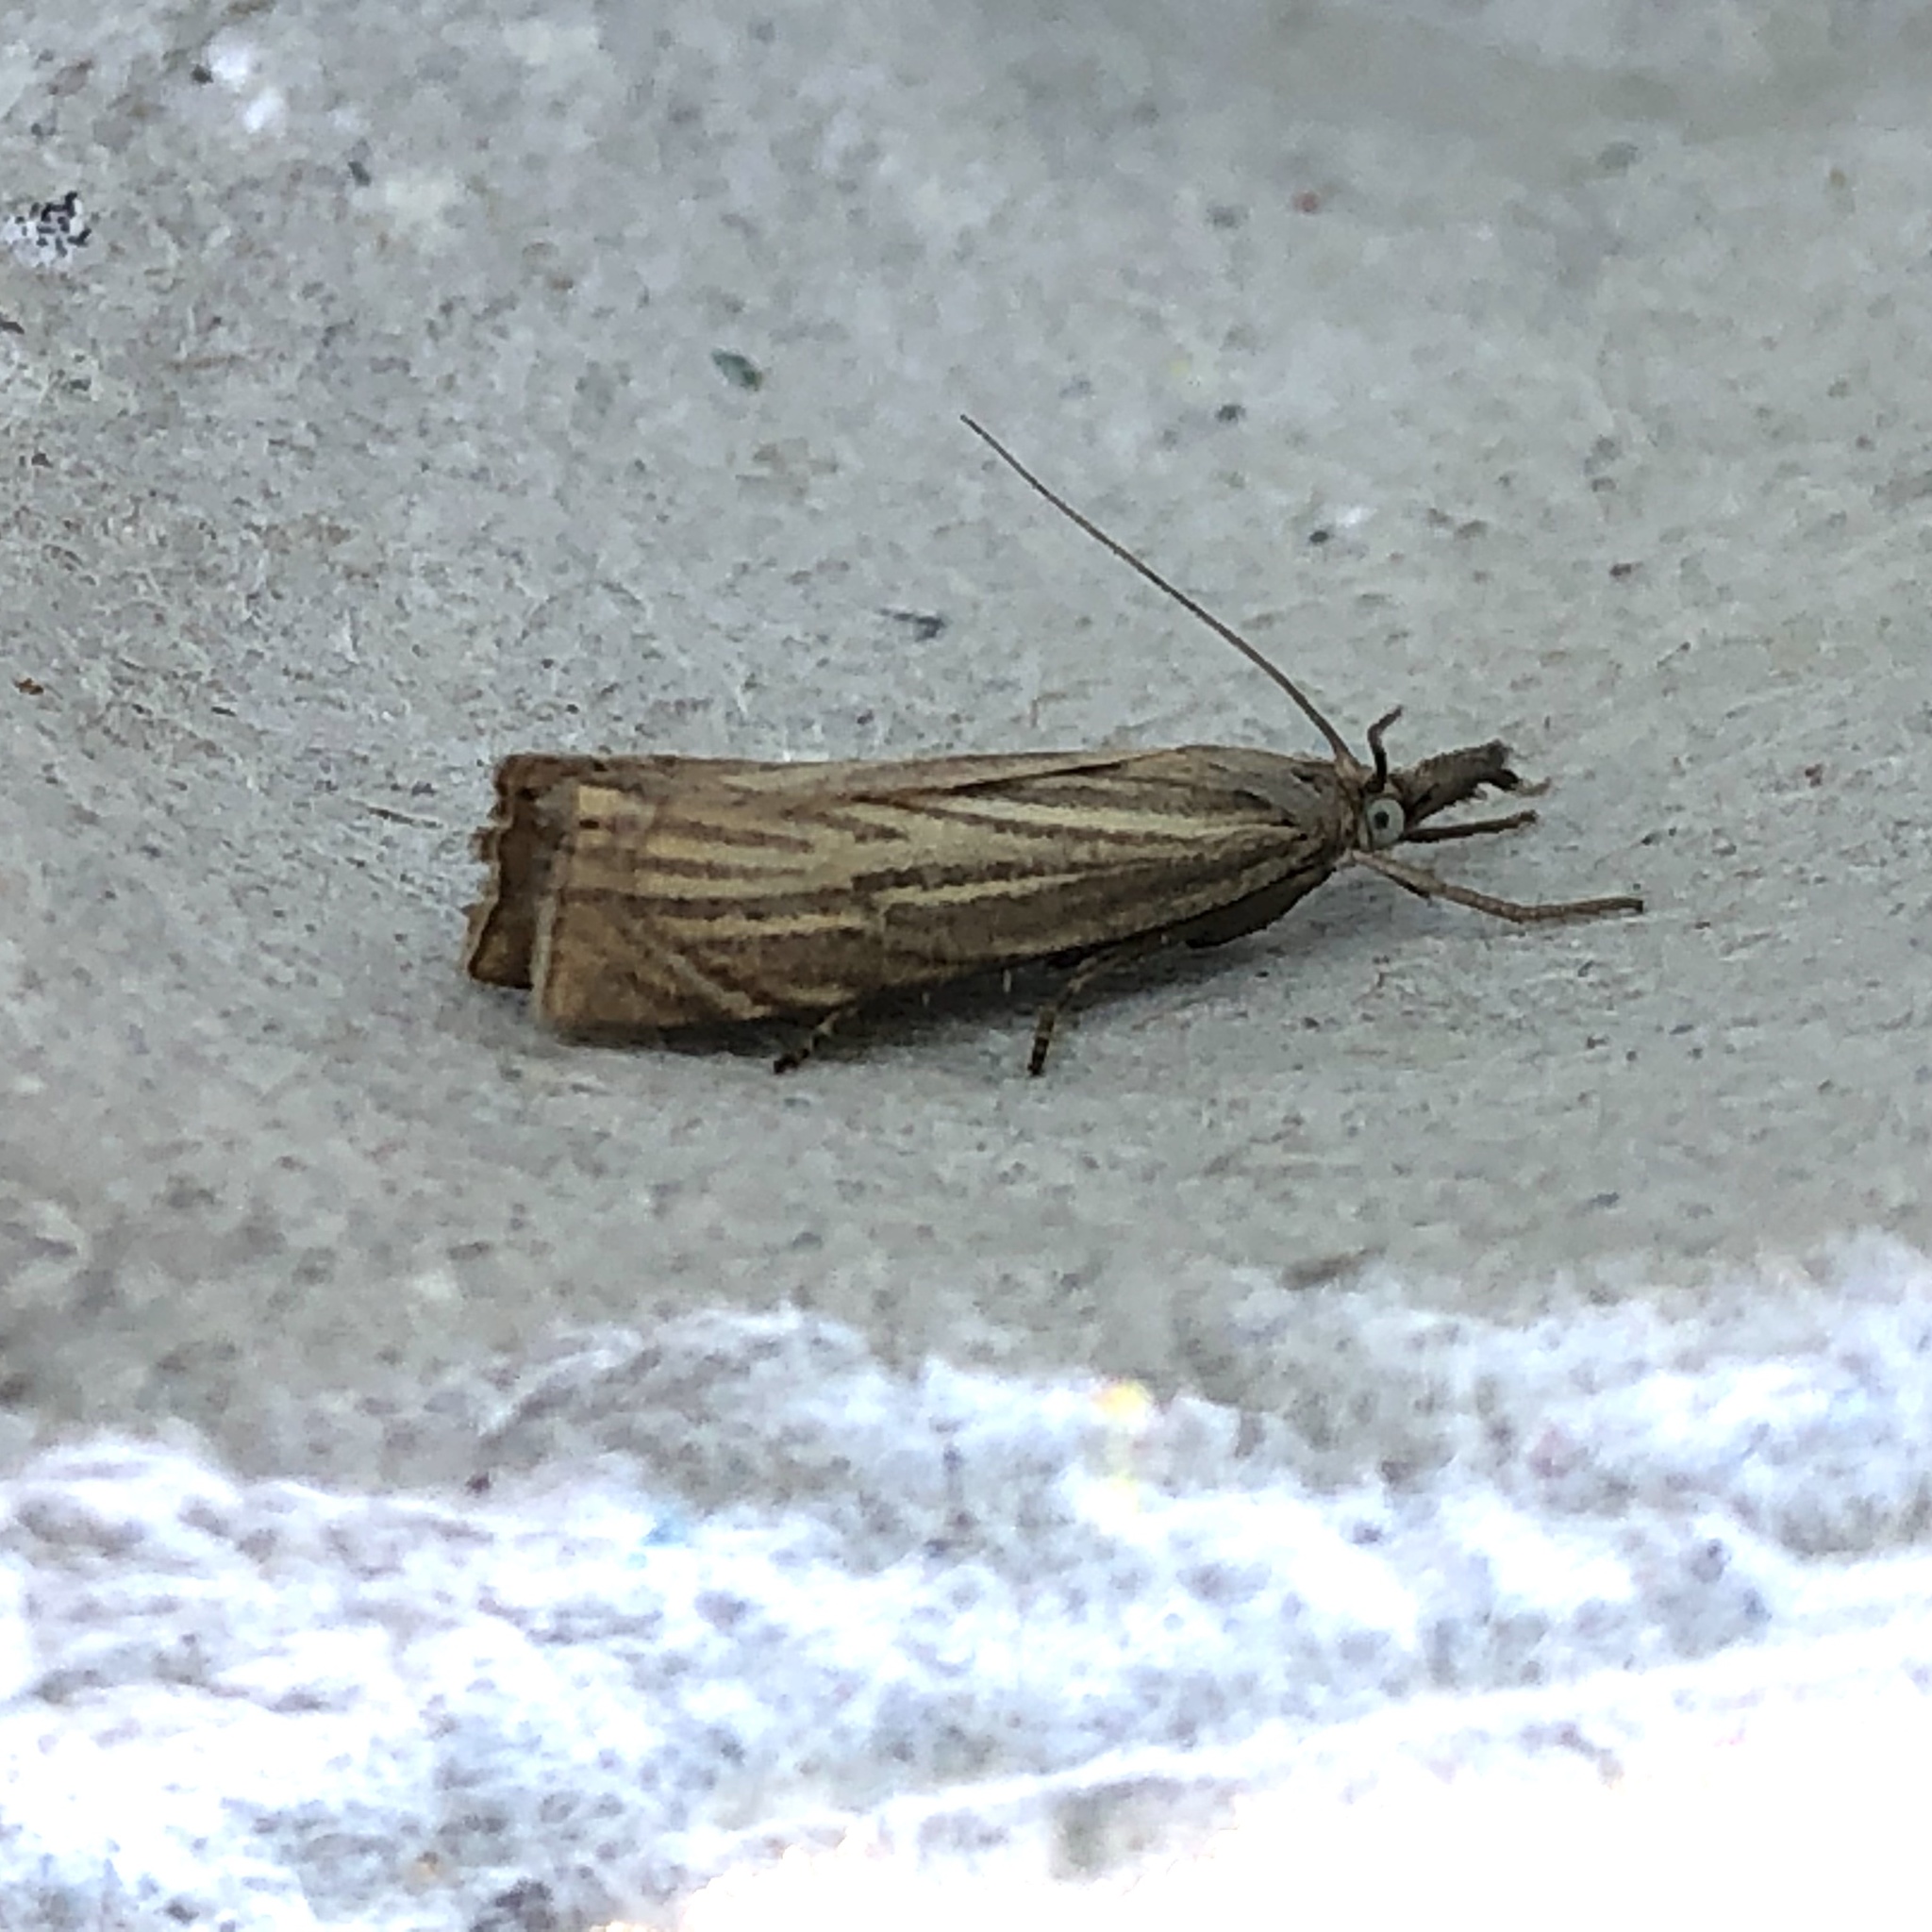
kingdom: Animalia
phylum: Arthropoda
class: Insecta
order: Lepidoptera
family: Crambidae
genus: Chrysoteuchia
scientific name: Chrysoteuchia culmella
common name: Garden grass-veneer
